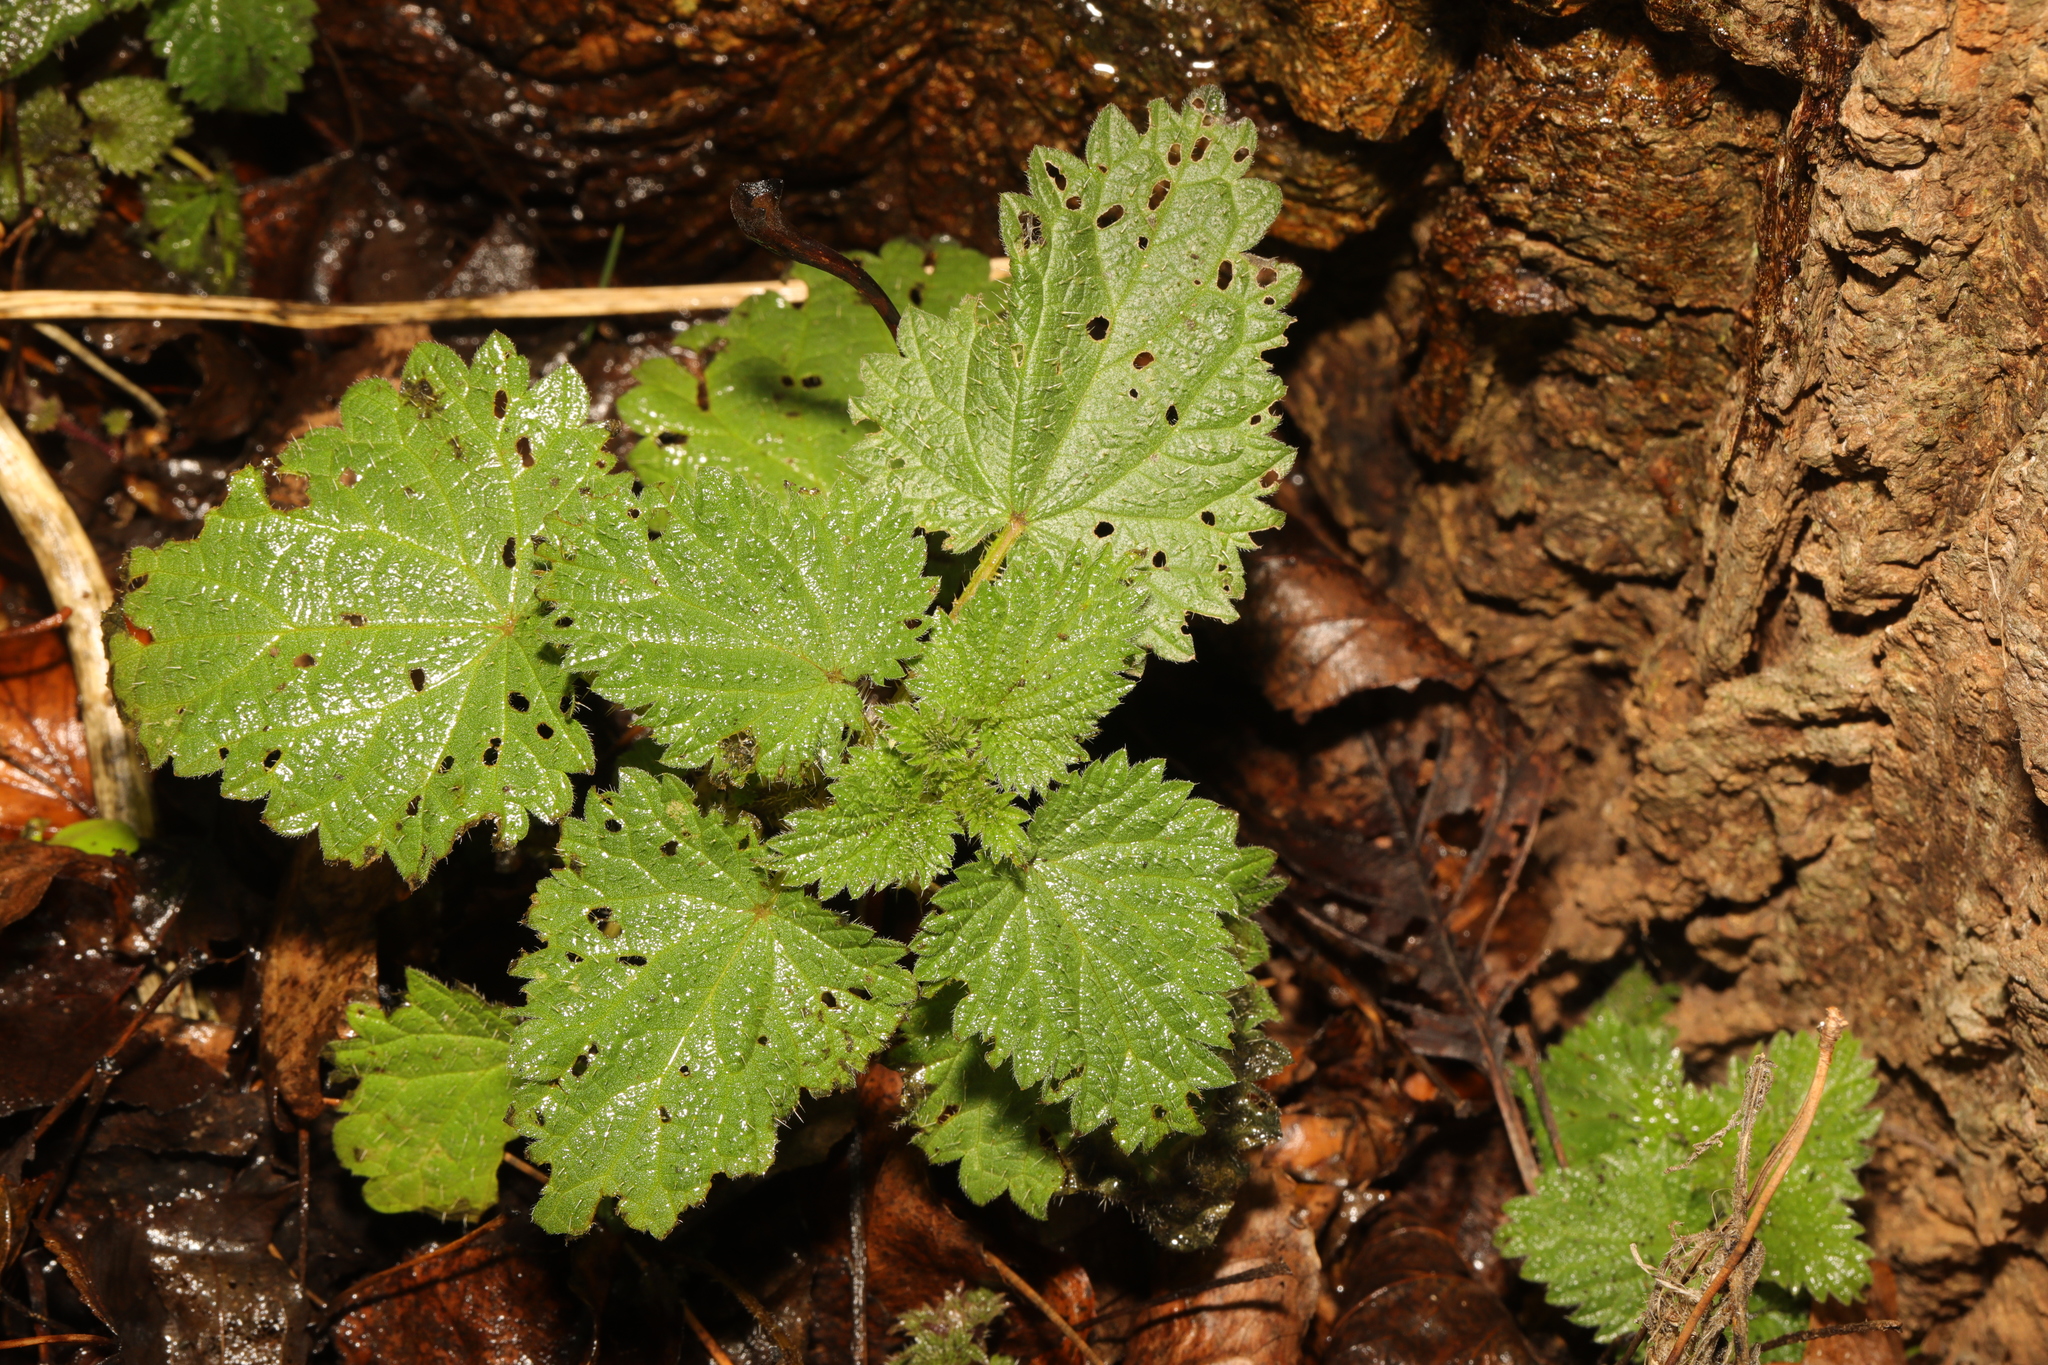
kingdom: Plantae
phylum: Tracheophyta
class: Magnoliopsida
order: Rosales
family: Urticaceae
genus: Urtica
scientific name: Urtica dioica
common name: Common nettle
